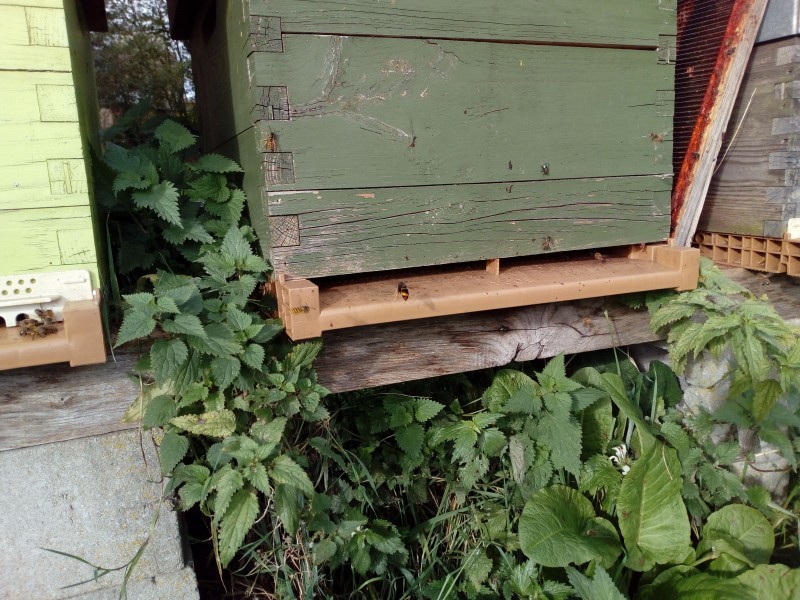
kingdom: Animalia
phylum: Arthropoda
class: Insecta
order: Hymenoptera
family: Vespidae
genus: Vespa
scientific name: Vespa velutina
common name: Asian hornet
